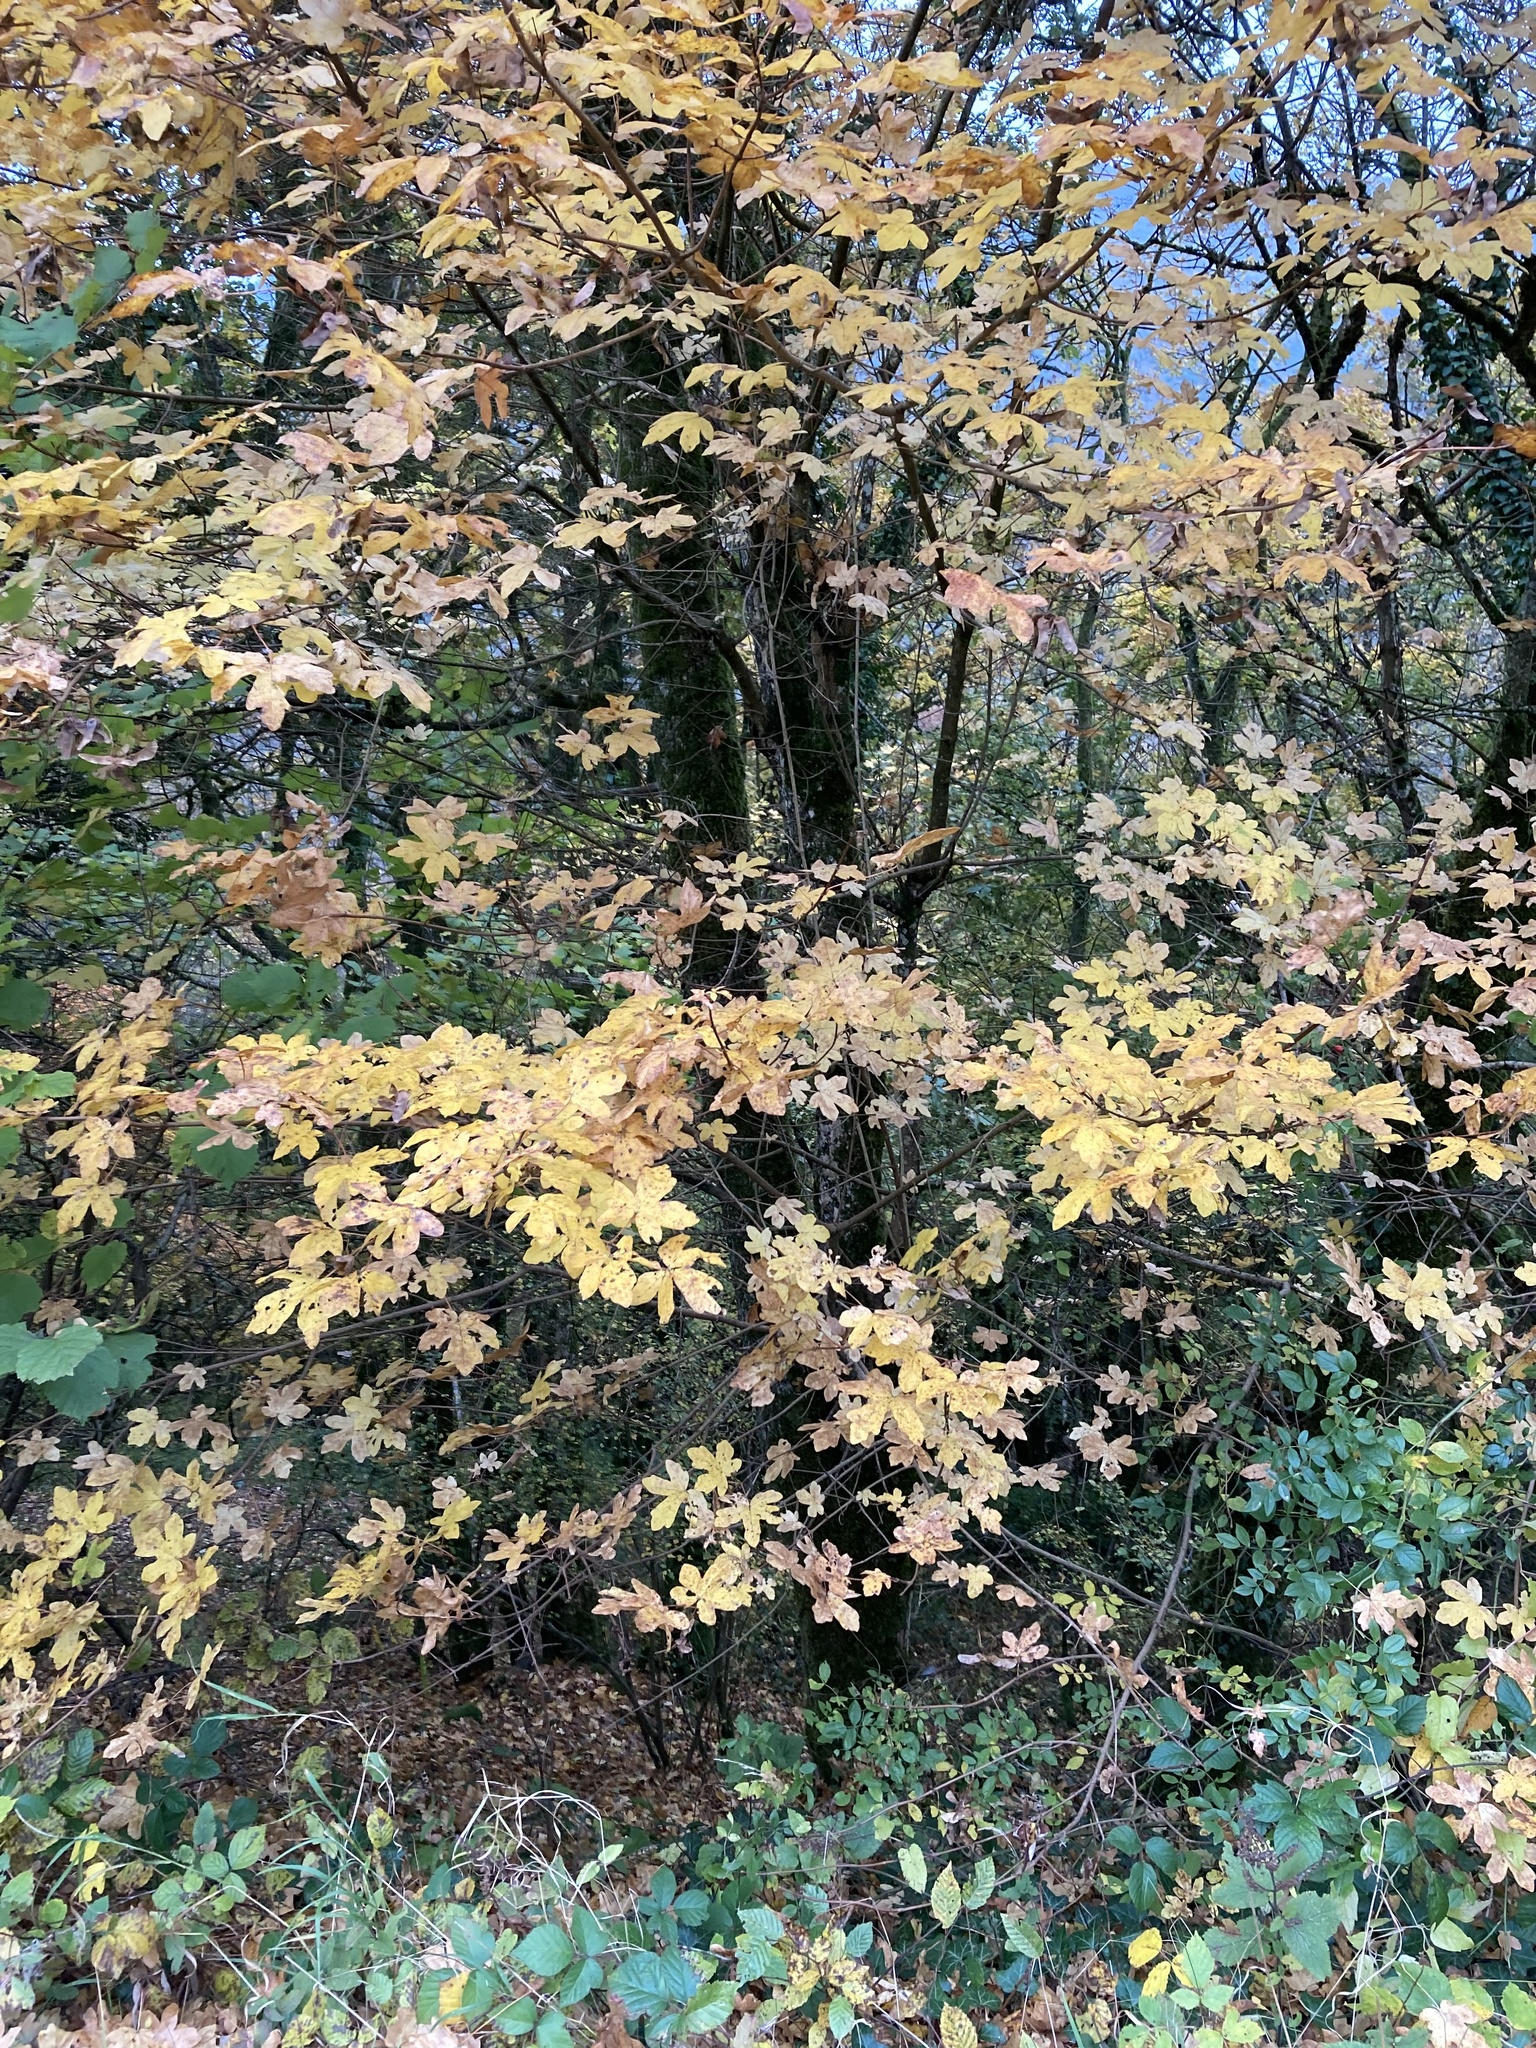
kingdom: Plantae
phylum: Tracheophyta
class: Magnoliopsida
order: Sapindales
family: Sapindaceae
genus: Acer
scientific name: Acer campestre
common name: Field maple
